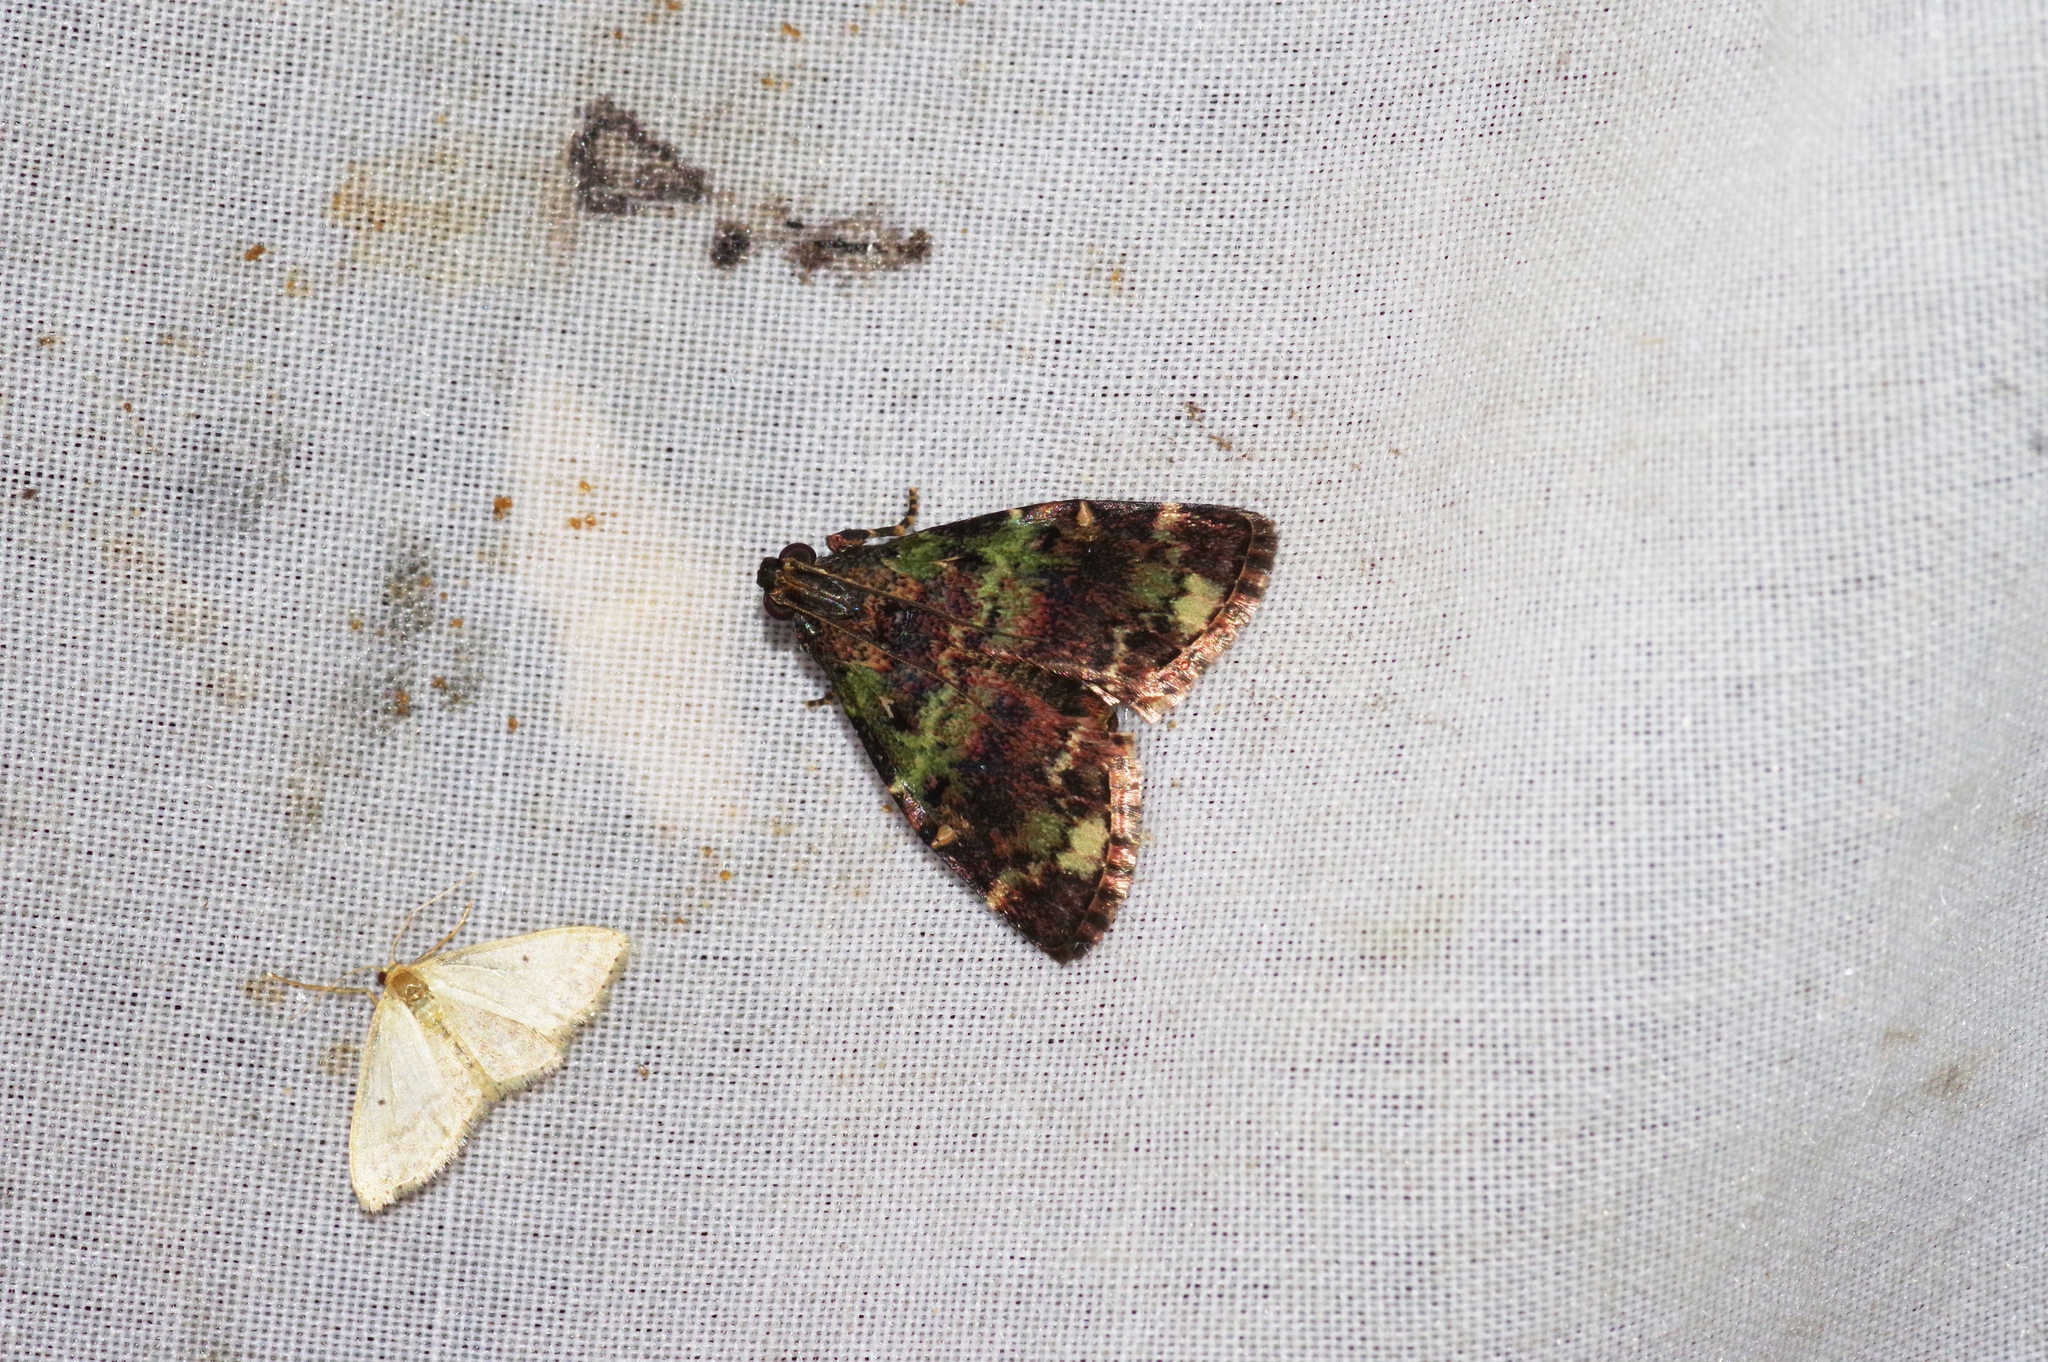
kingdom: Animalia
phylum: Arthropoda
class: Insecta
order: Lepidoptera
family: Pyralidae
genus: Orthaga
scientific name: Orthaga olivacea
